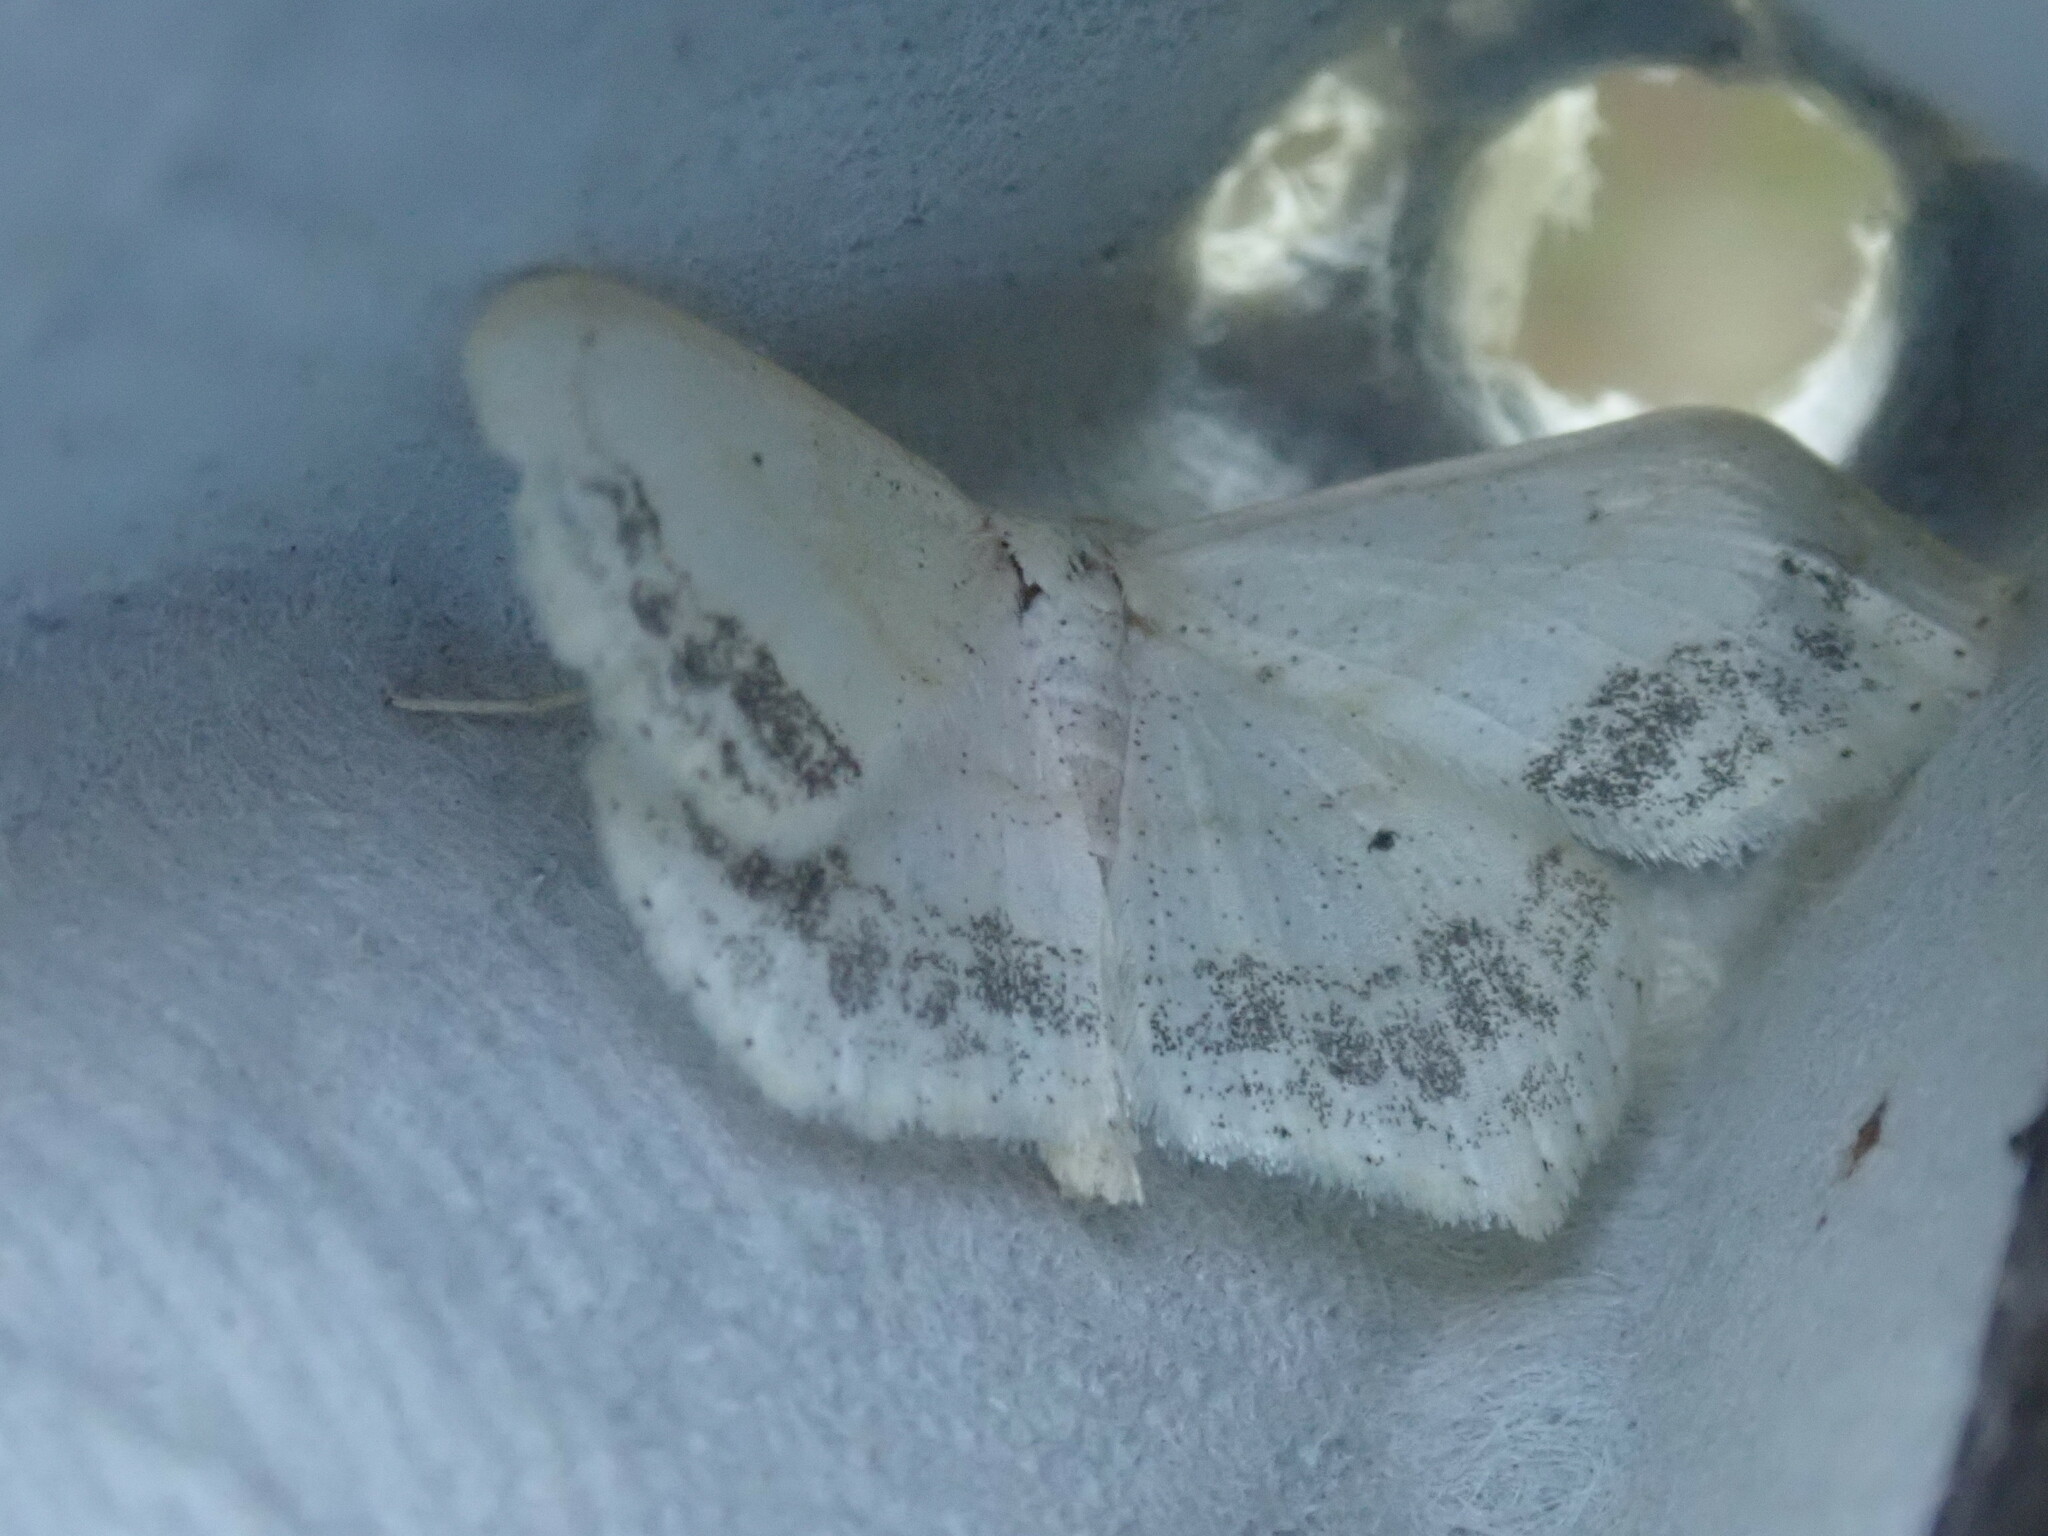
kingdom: Animalia
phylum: Arthropoda
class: Insecta
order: Lepidoptera
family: Geometridae
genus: Scopula
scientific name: Scopula limboundata
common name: Large lace border
